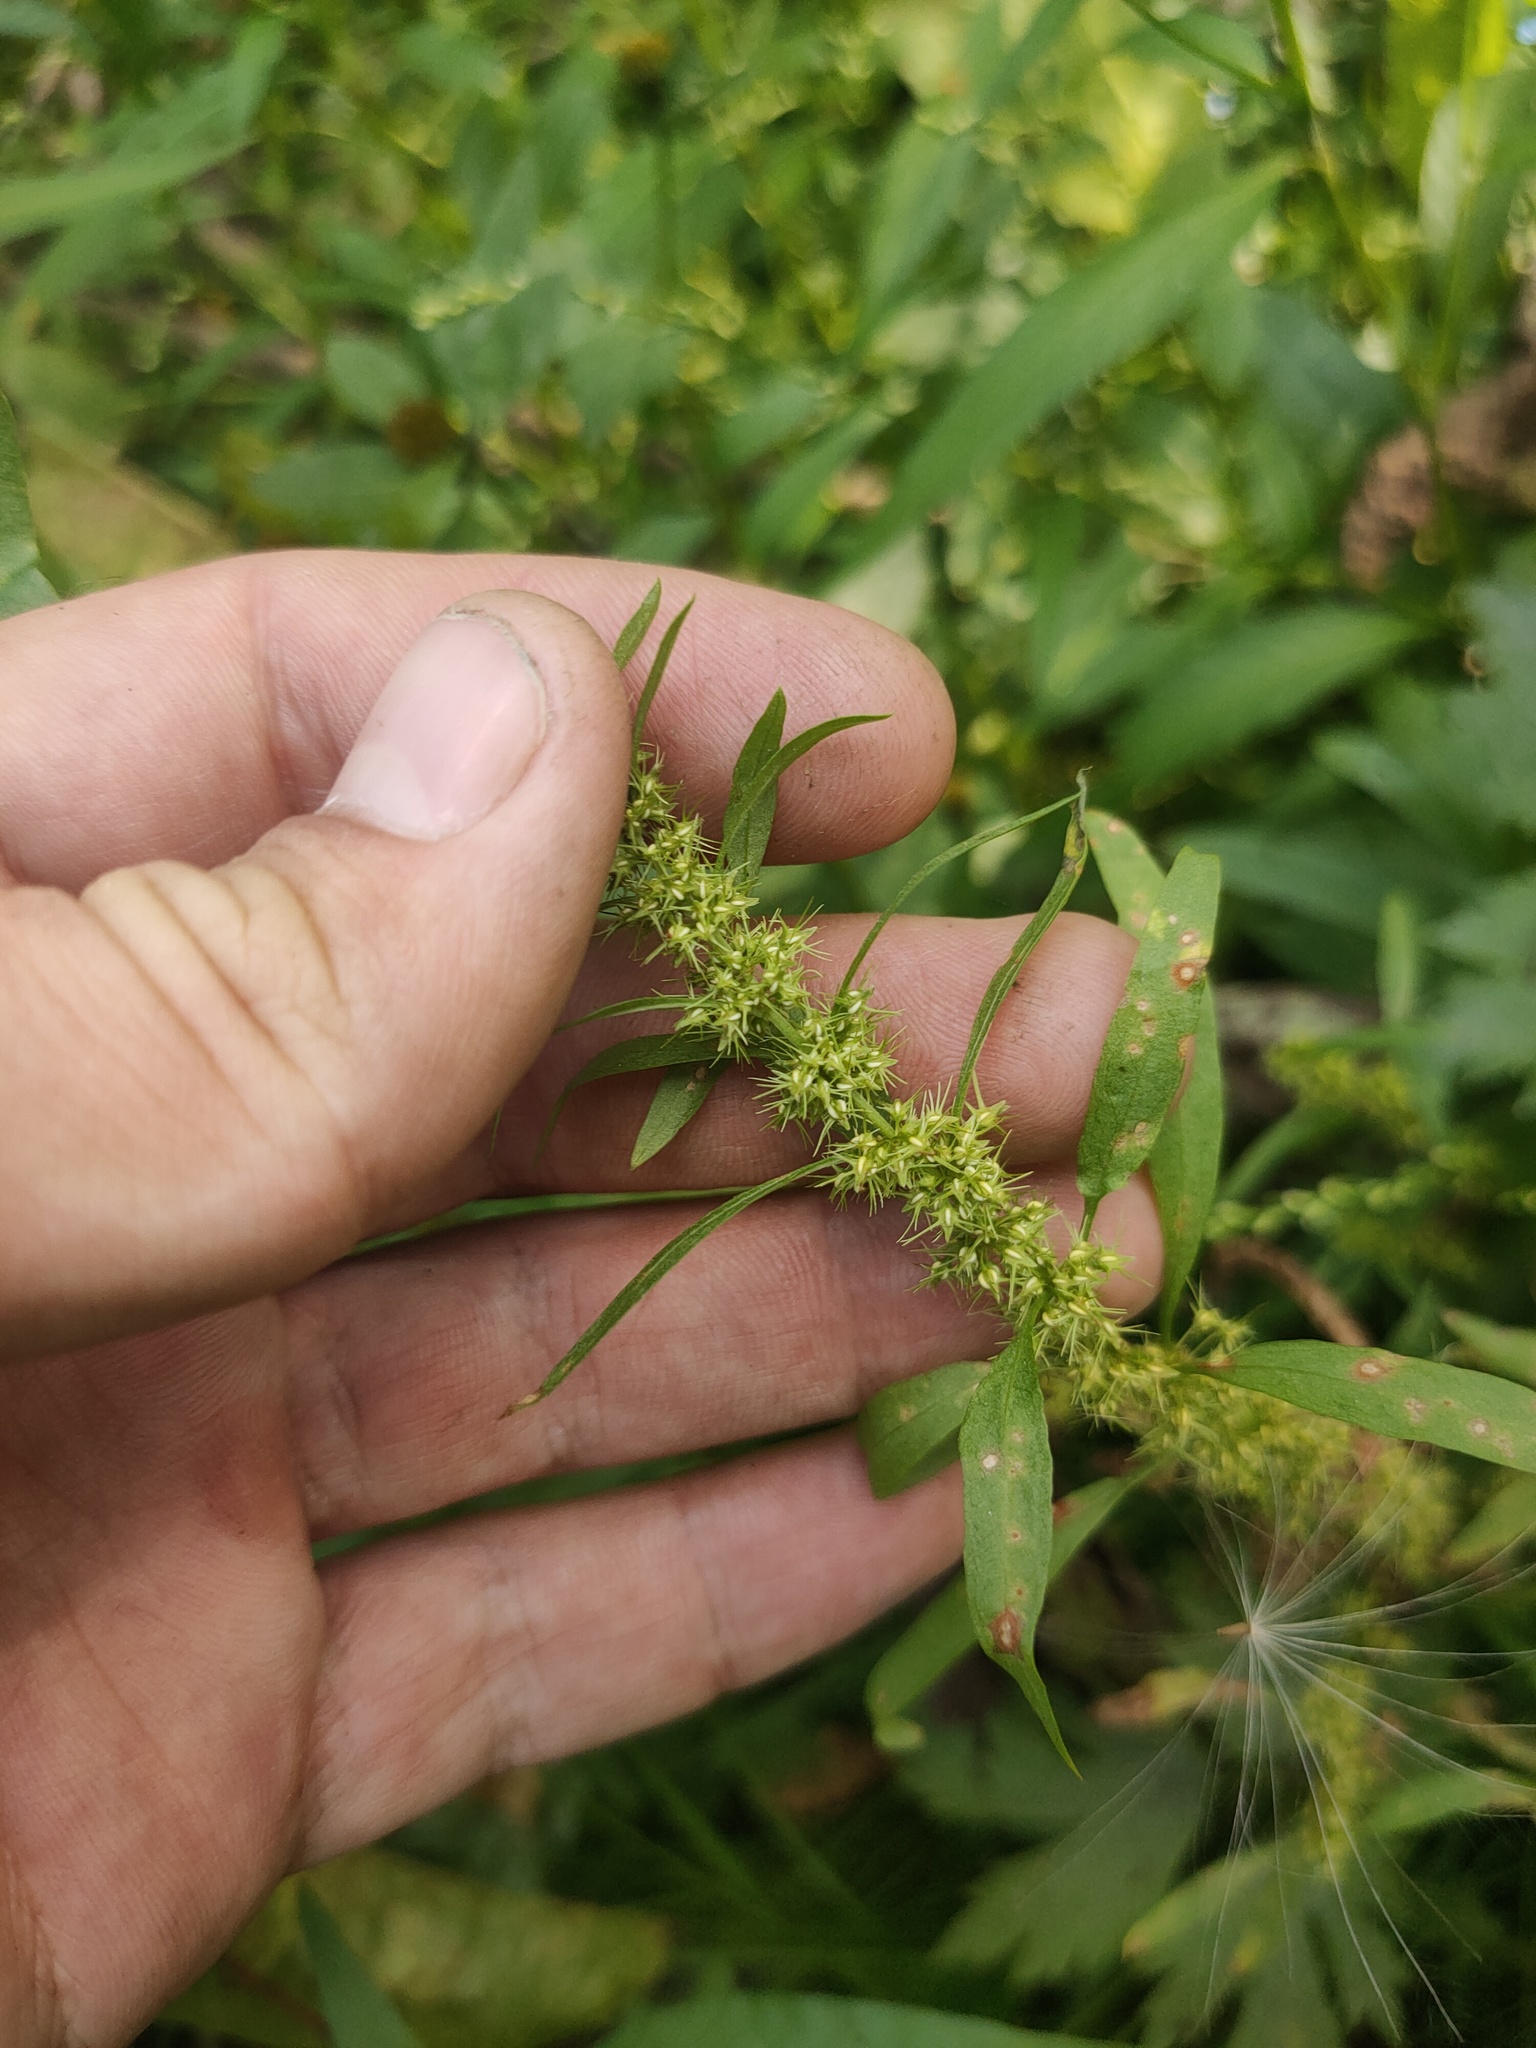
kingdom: Plantae
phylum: Tracheophyta
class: Magnoliopsida
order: Caryophyllales
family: Polygonaceae
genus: Rumex
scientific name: Rumex maritimus
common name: Golden dock
